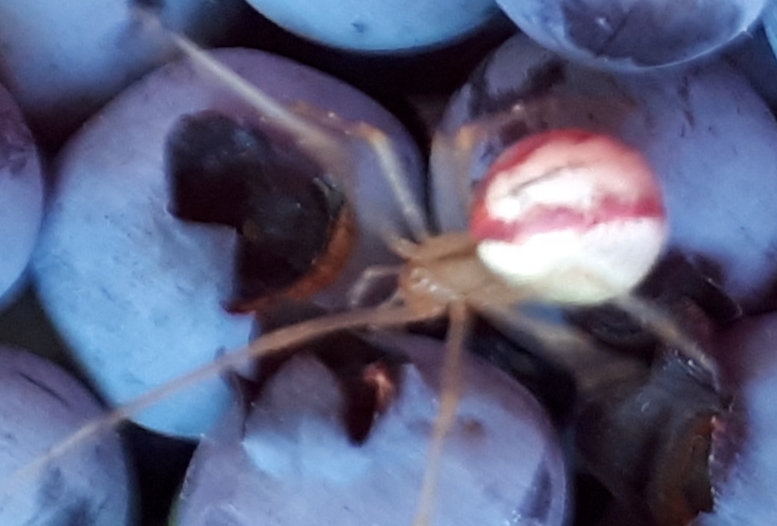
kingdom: Animalia
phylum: Arthropoda
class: Arachnida
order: Araneae
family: Theridiidae
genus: Enoplognatha
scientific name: Enoplognatha ovata
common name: Common candy-striped spider
